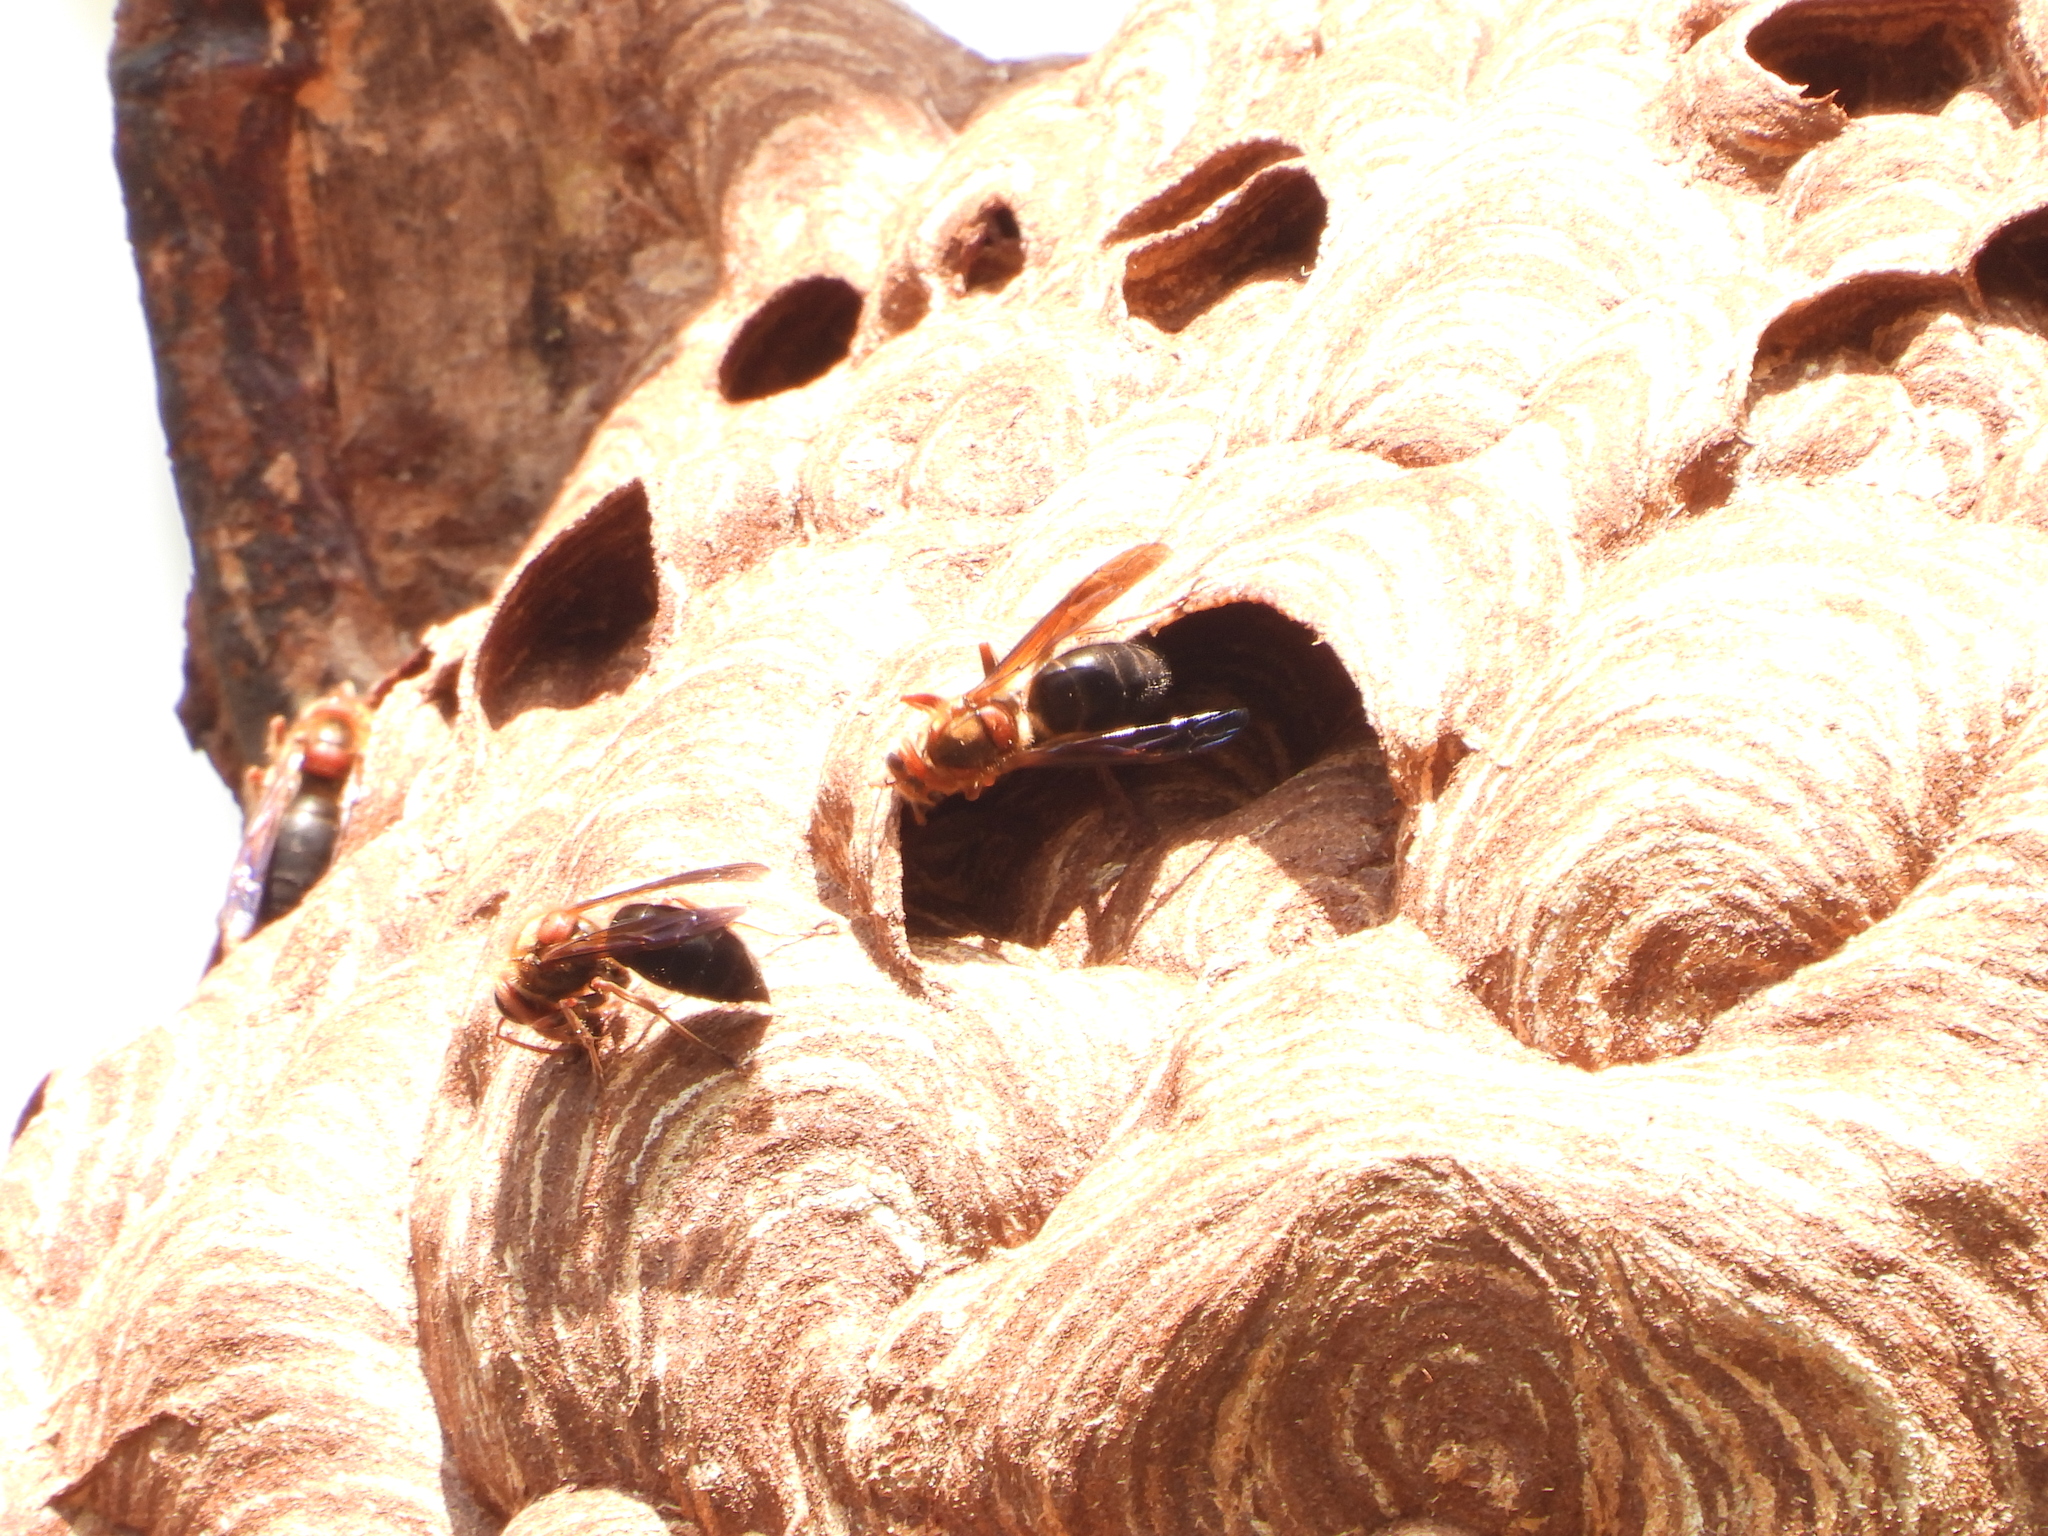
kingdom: Animalia
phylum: Arthropoda
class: Insecta
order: Hymenoptera
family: Vespidae
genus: Vespa
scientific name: Vespa basalis
